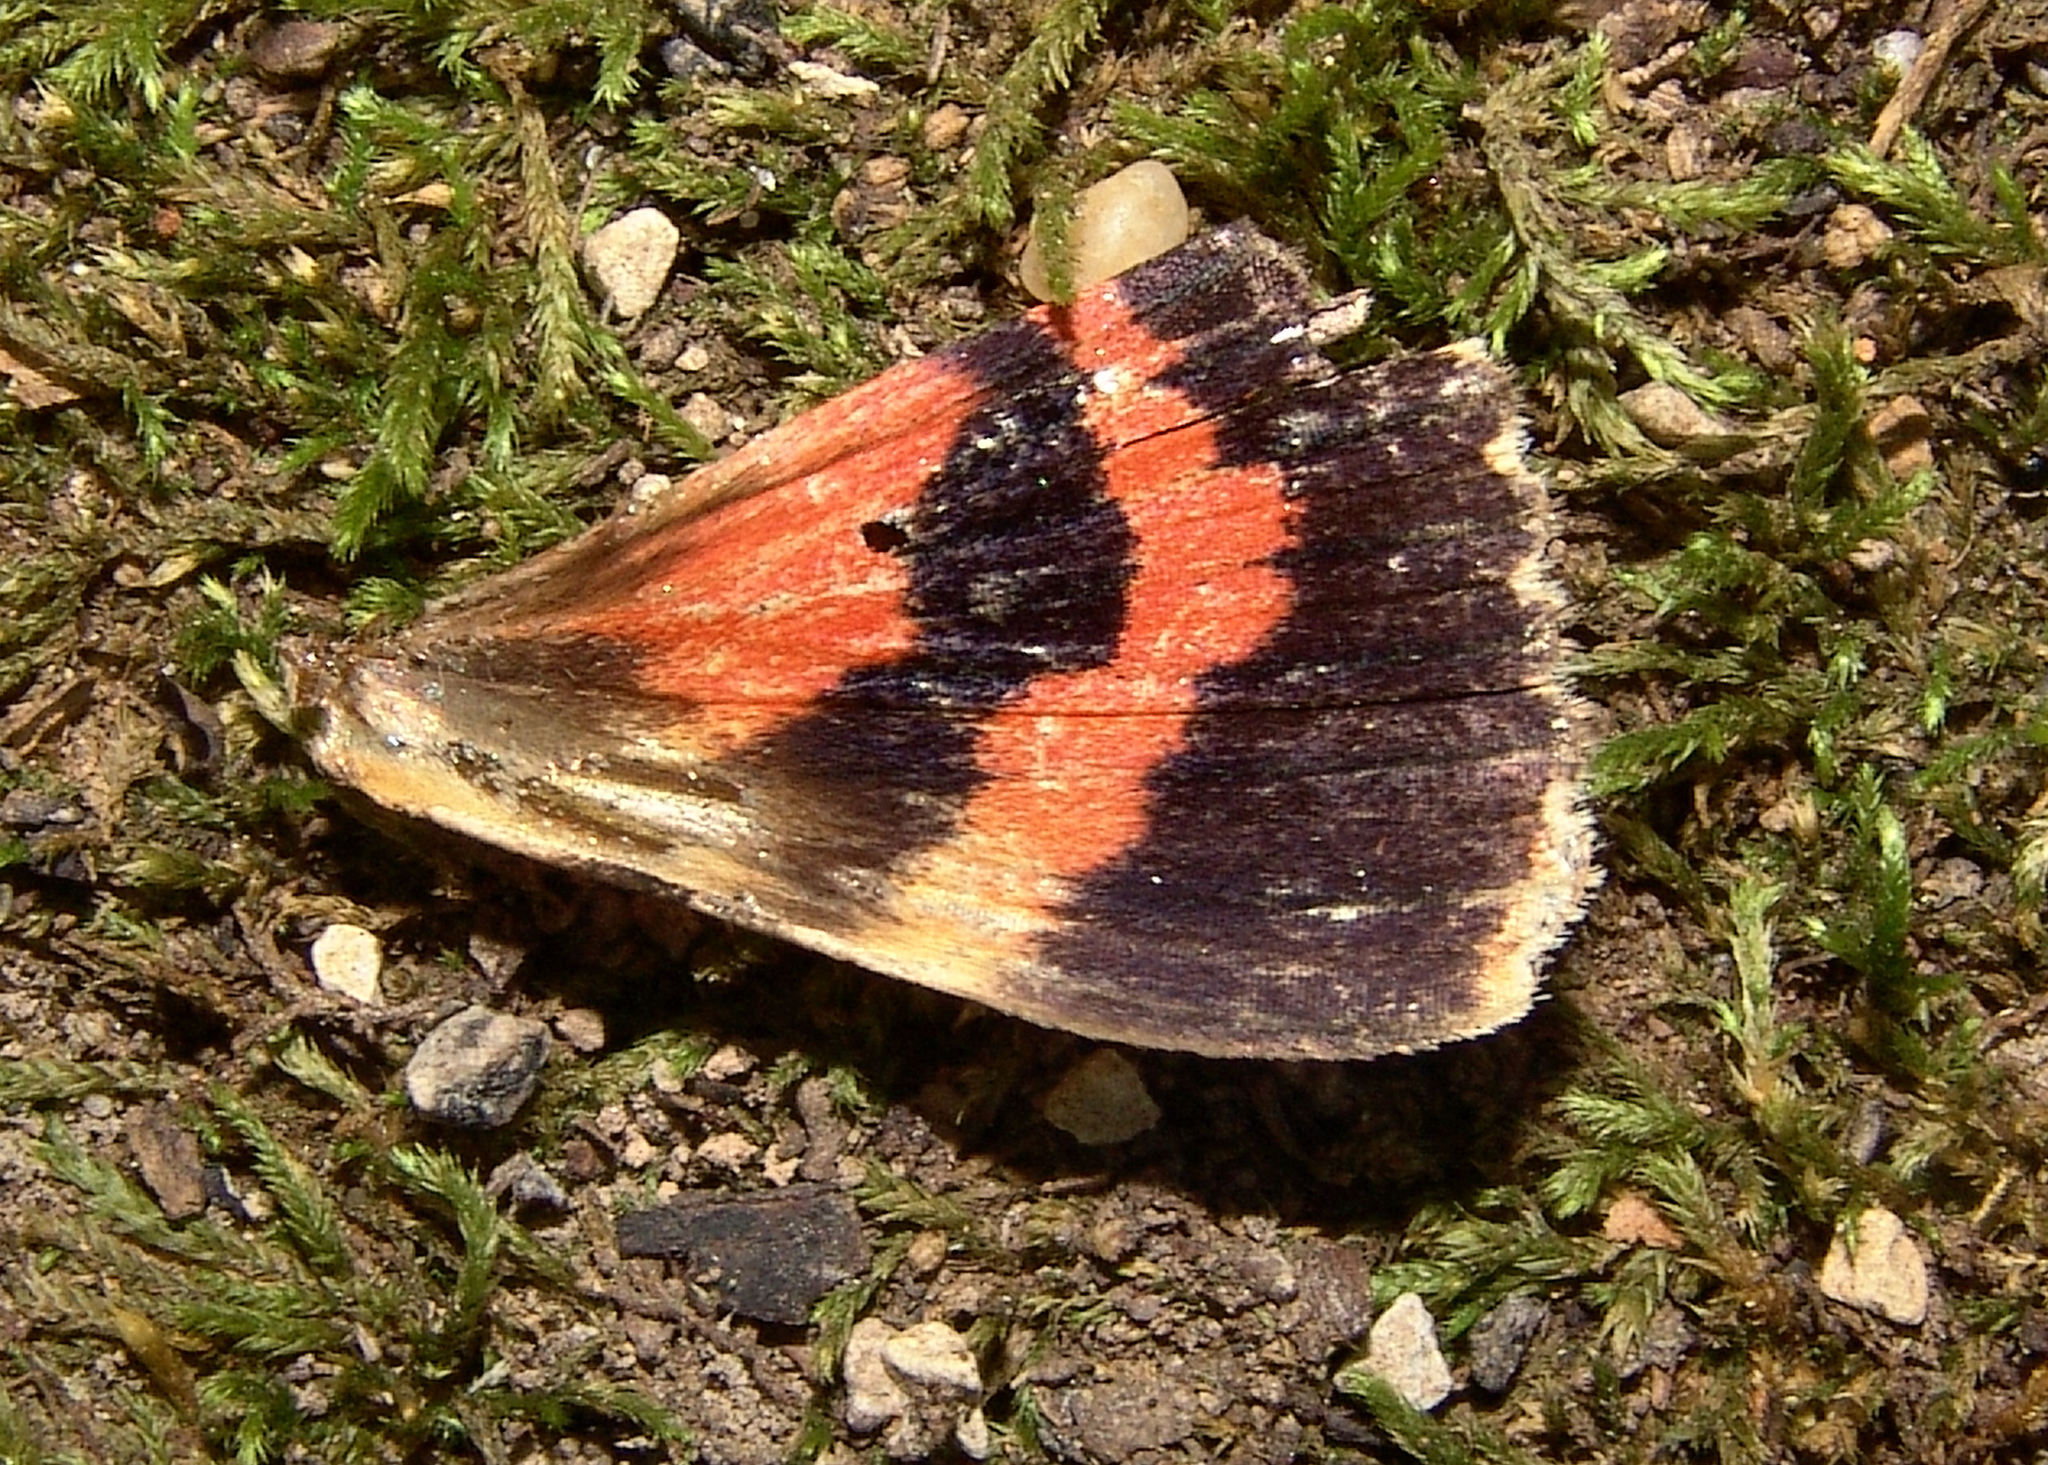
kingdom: Animalia
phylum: Arthropoda
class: Insecta
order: Lepidoptera
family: Erebidae
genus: Catocala
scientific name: Catocala ilia
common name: Ilia underwing
